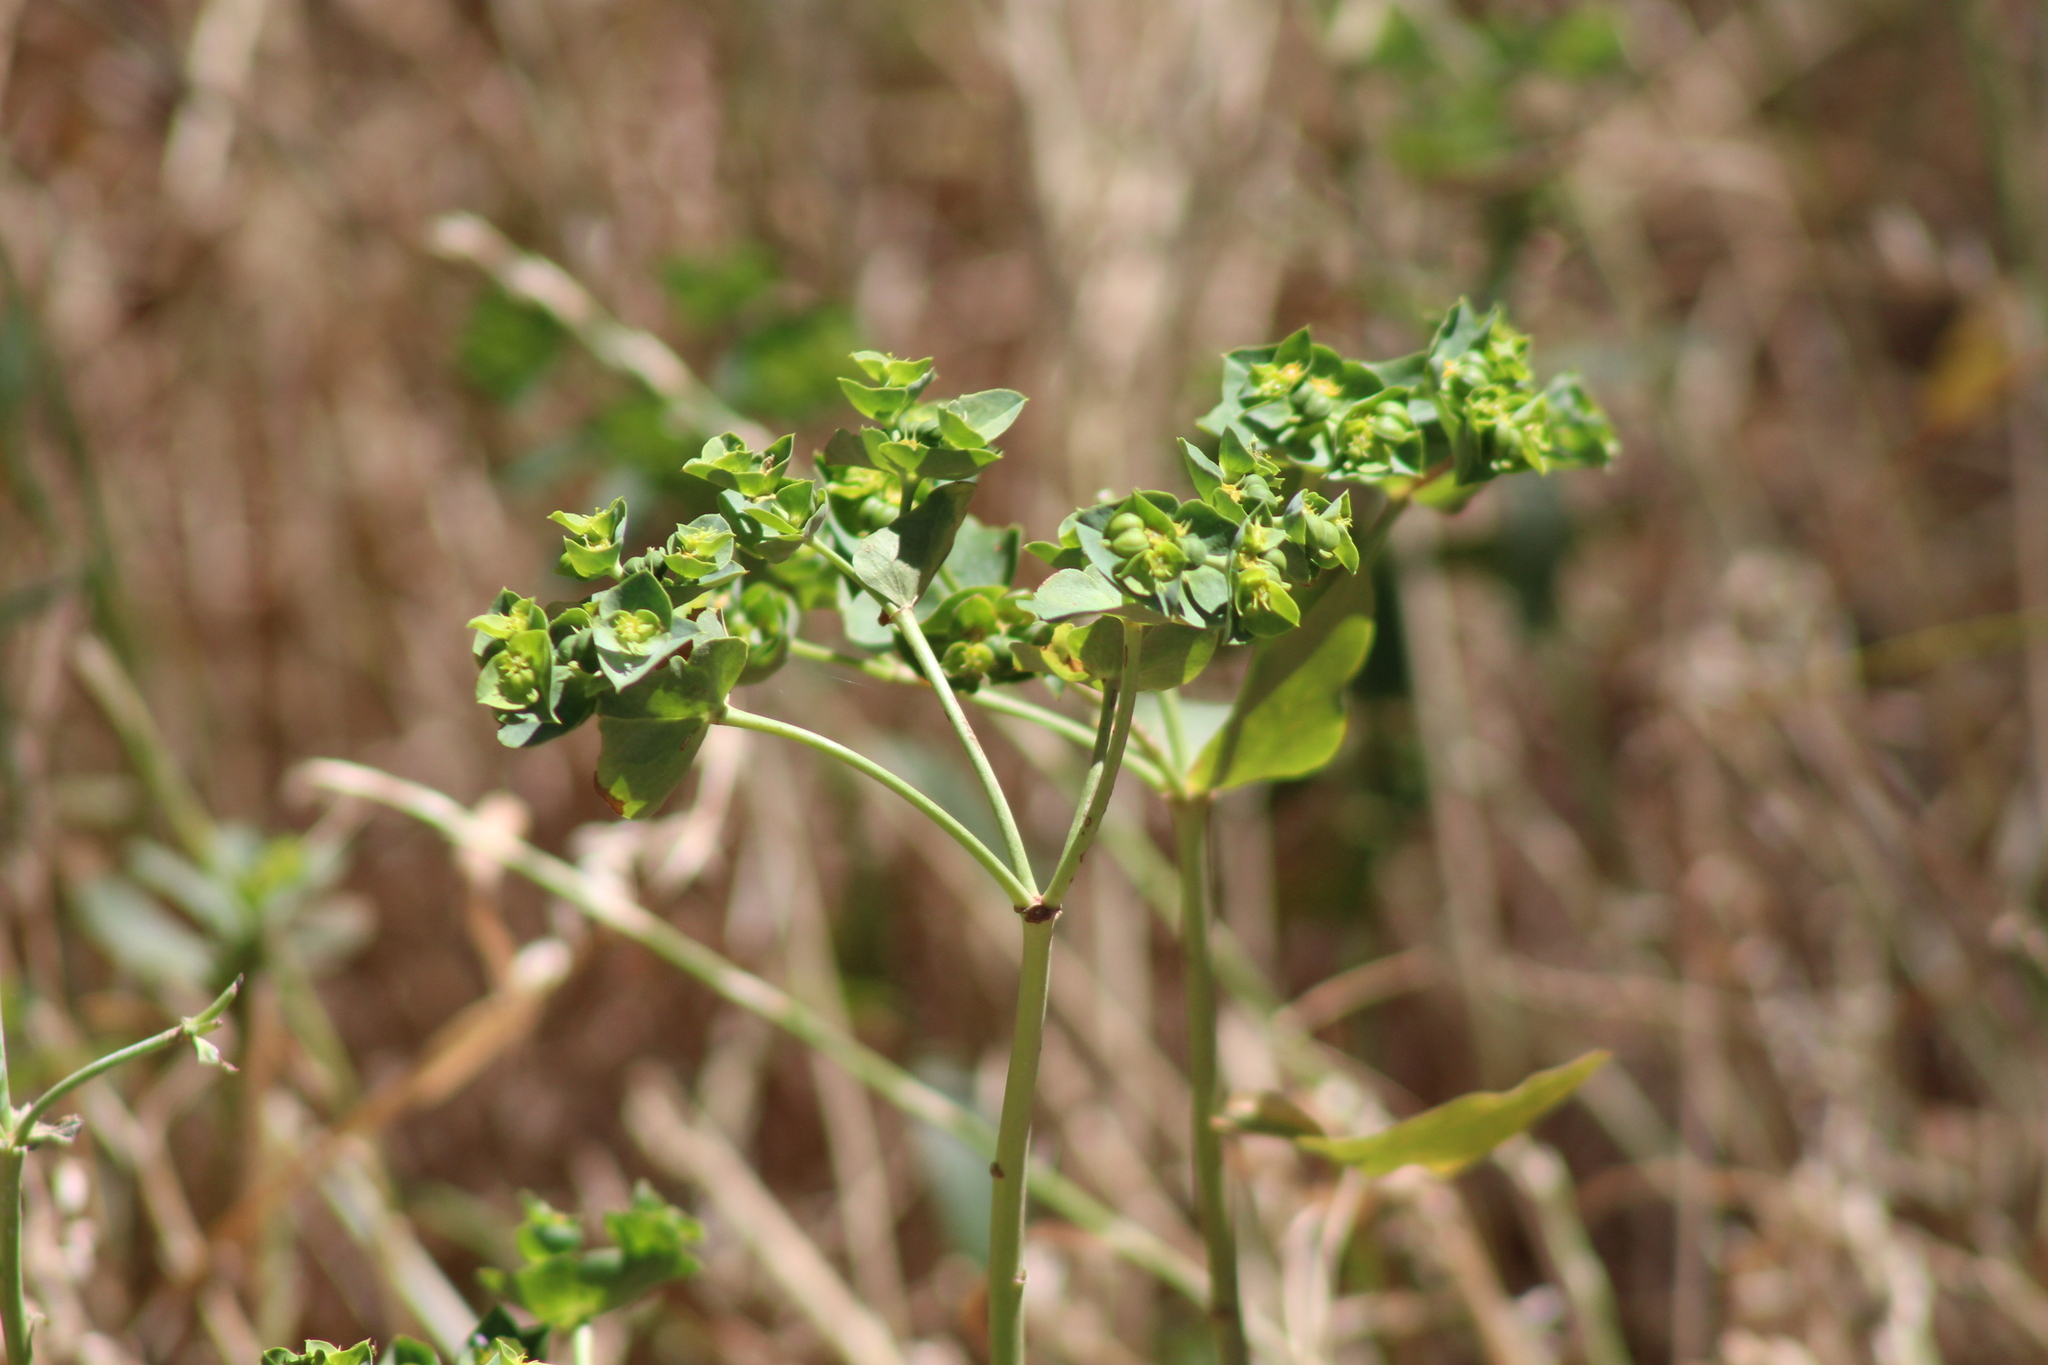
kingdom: Plantae
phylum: Tracheophyta
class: Magnoliopsida
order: Malpighiales
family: Euphorbiaceae
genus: Euphorbia
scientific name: Euphorbia terracina
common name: Geraldton carnation weed
